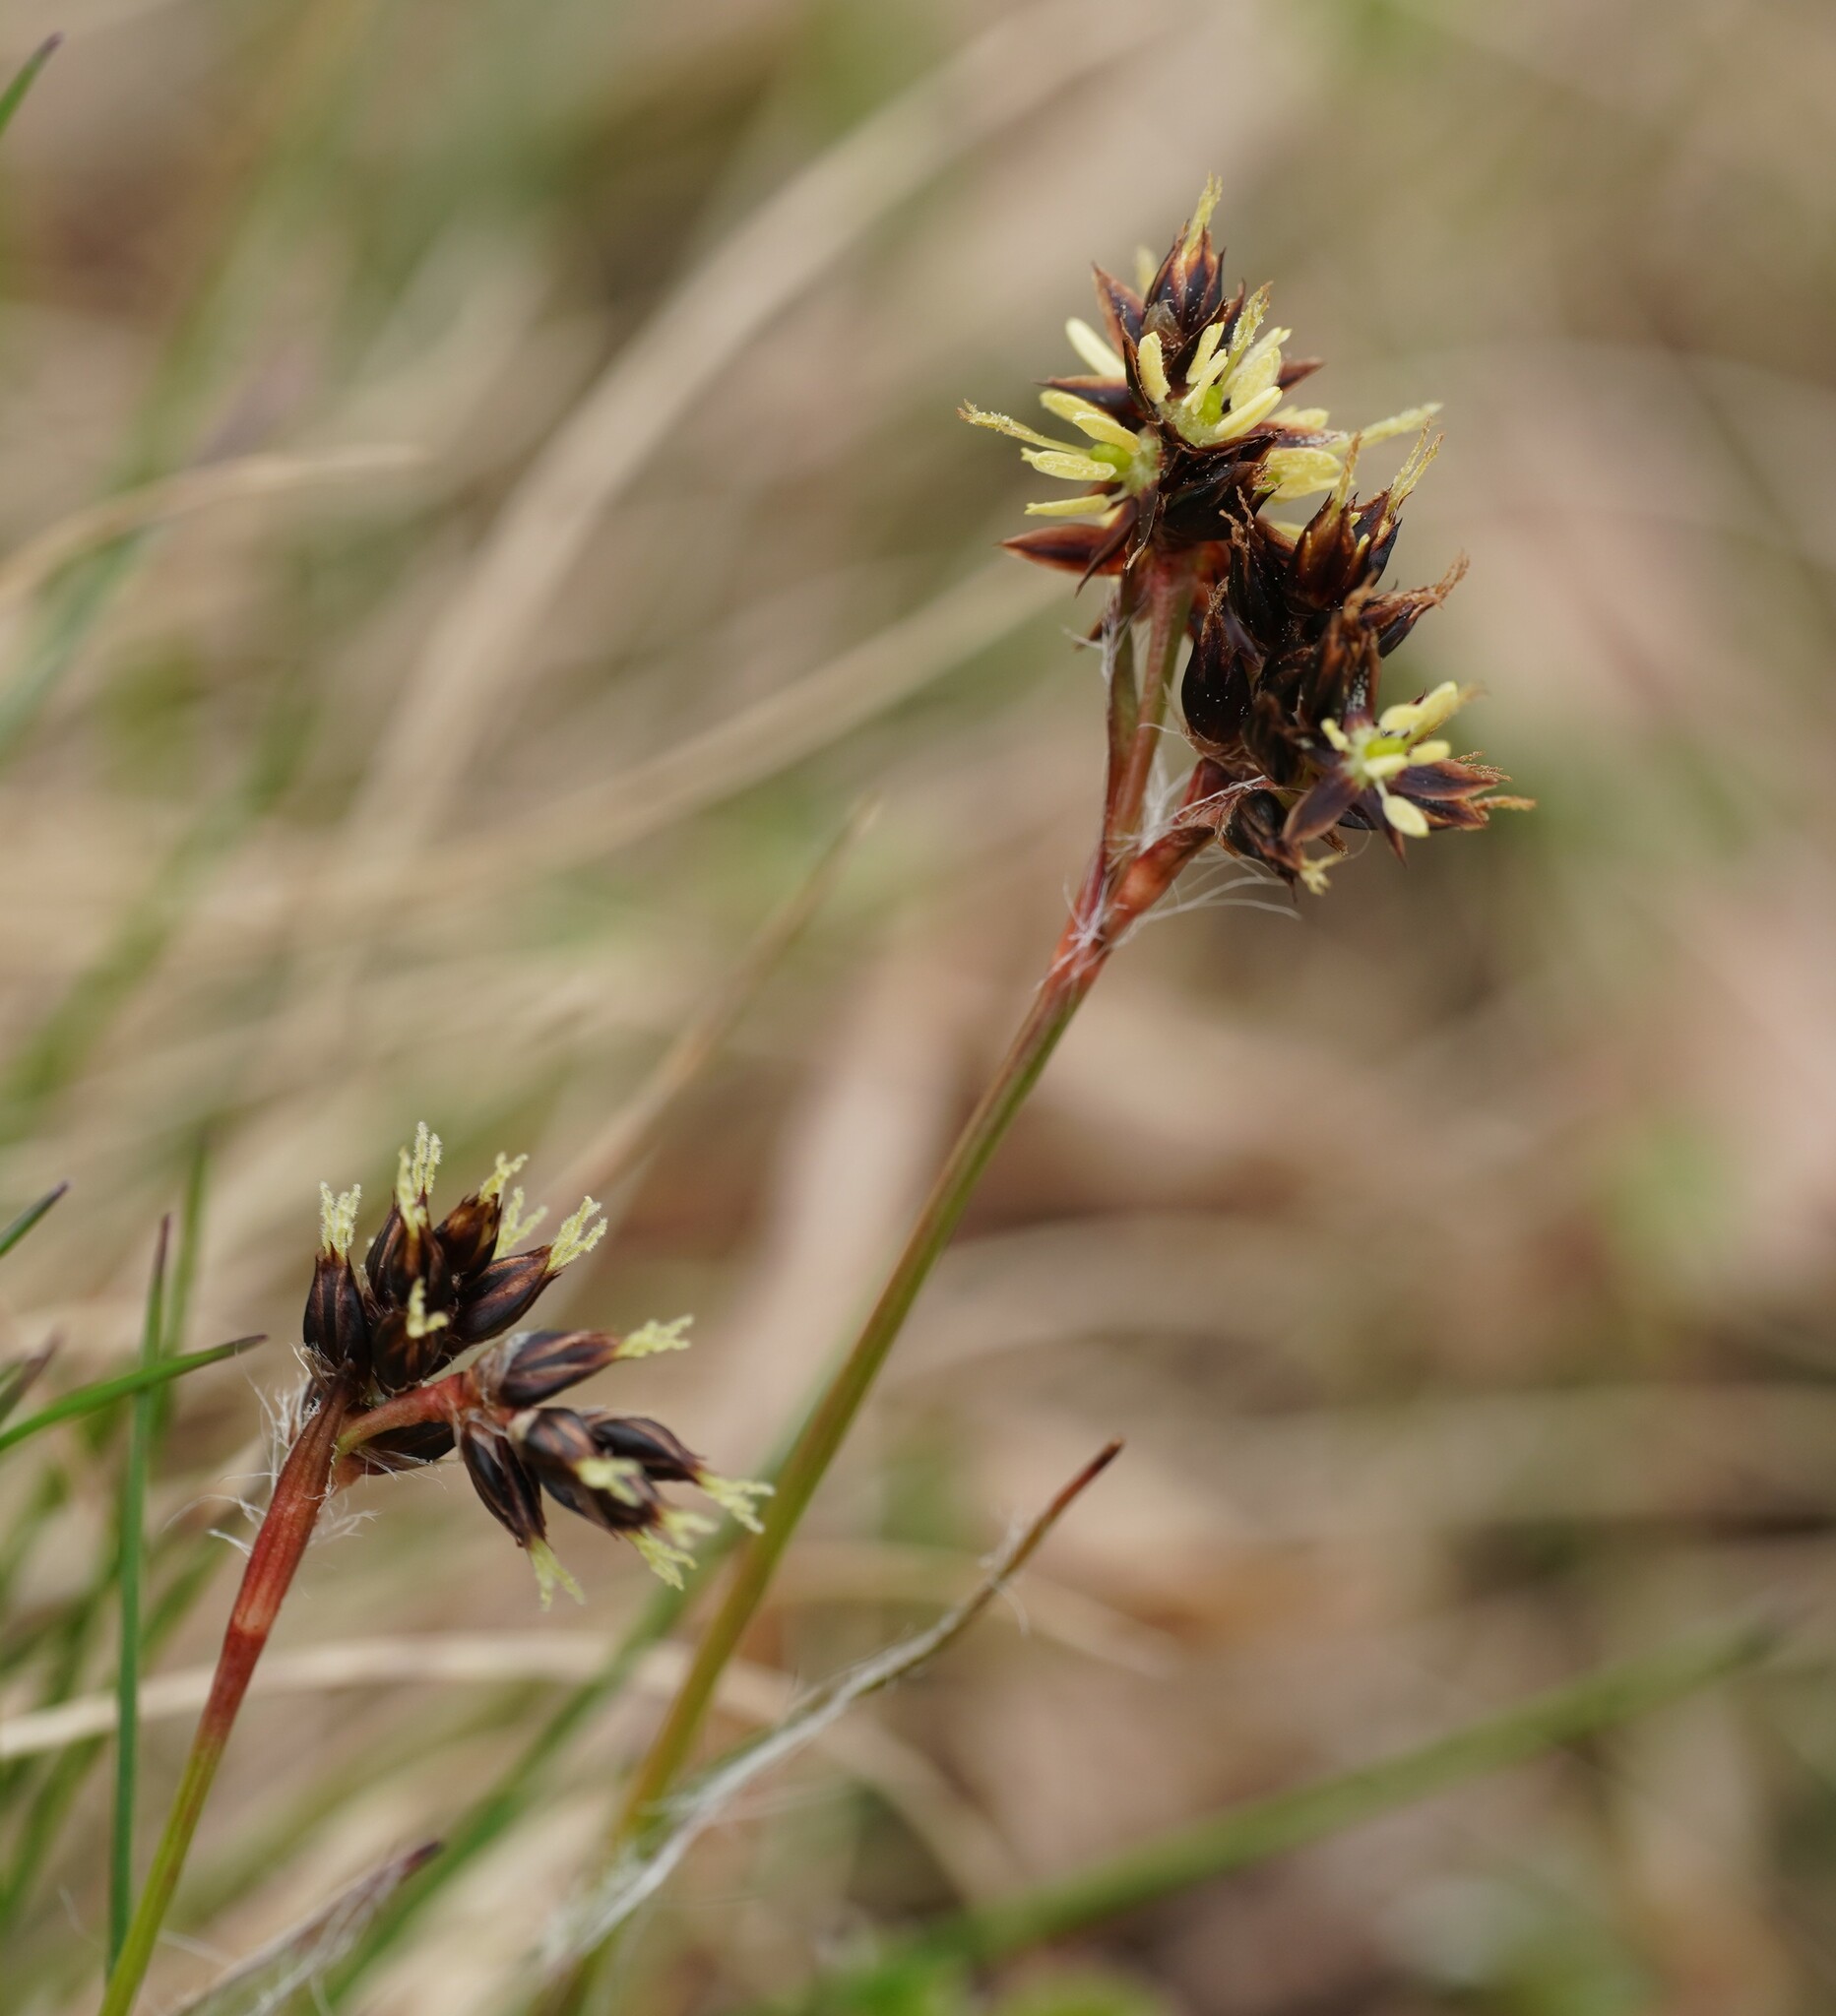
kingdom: Plantae
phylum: Tracheophyta
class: Liliopsida
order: Poales
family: Juncaceae
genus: Luzula
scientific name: Luzula campestris
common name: Field wood-rush
